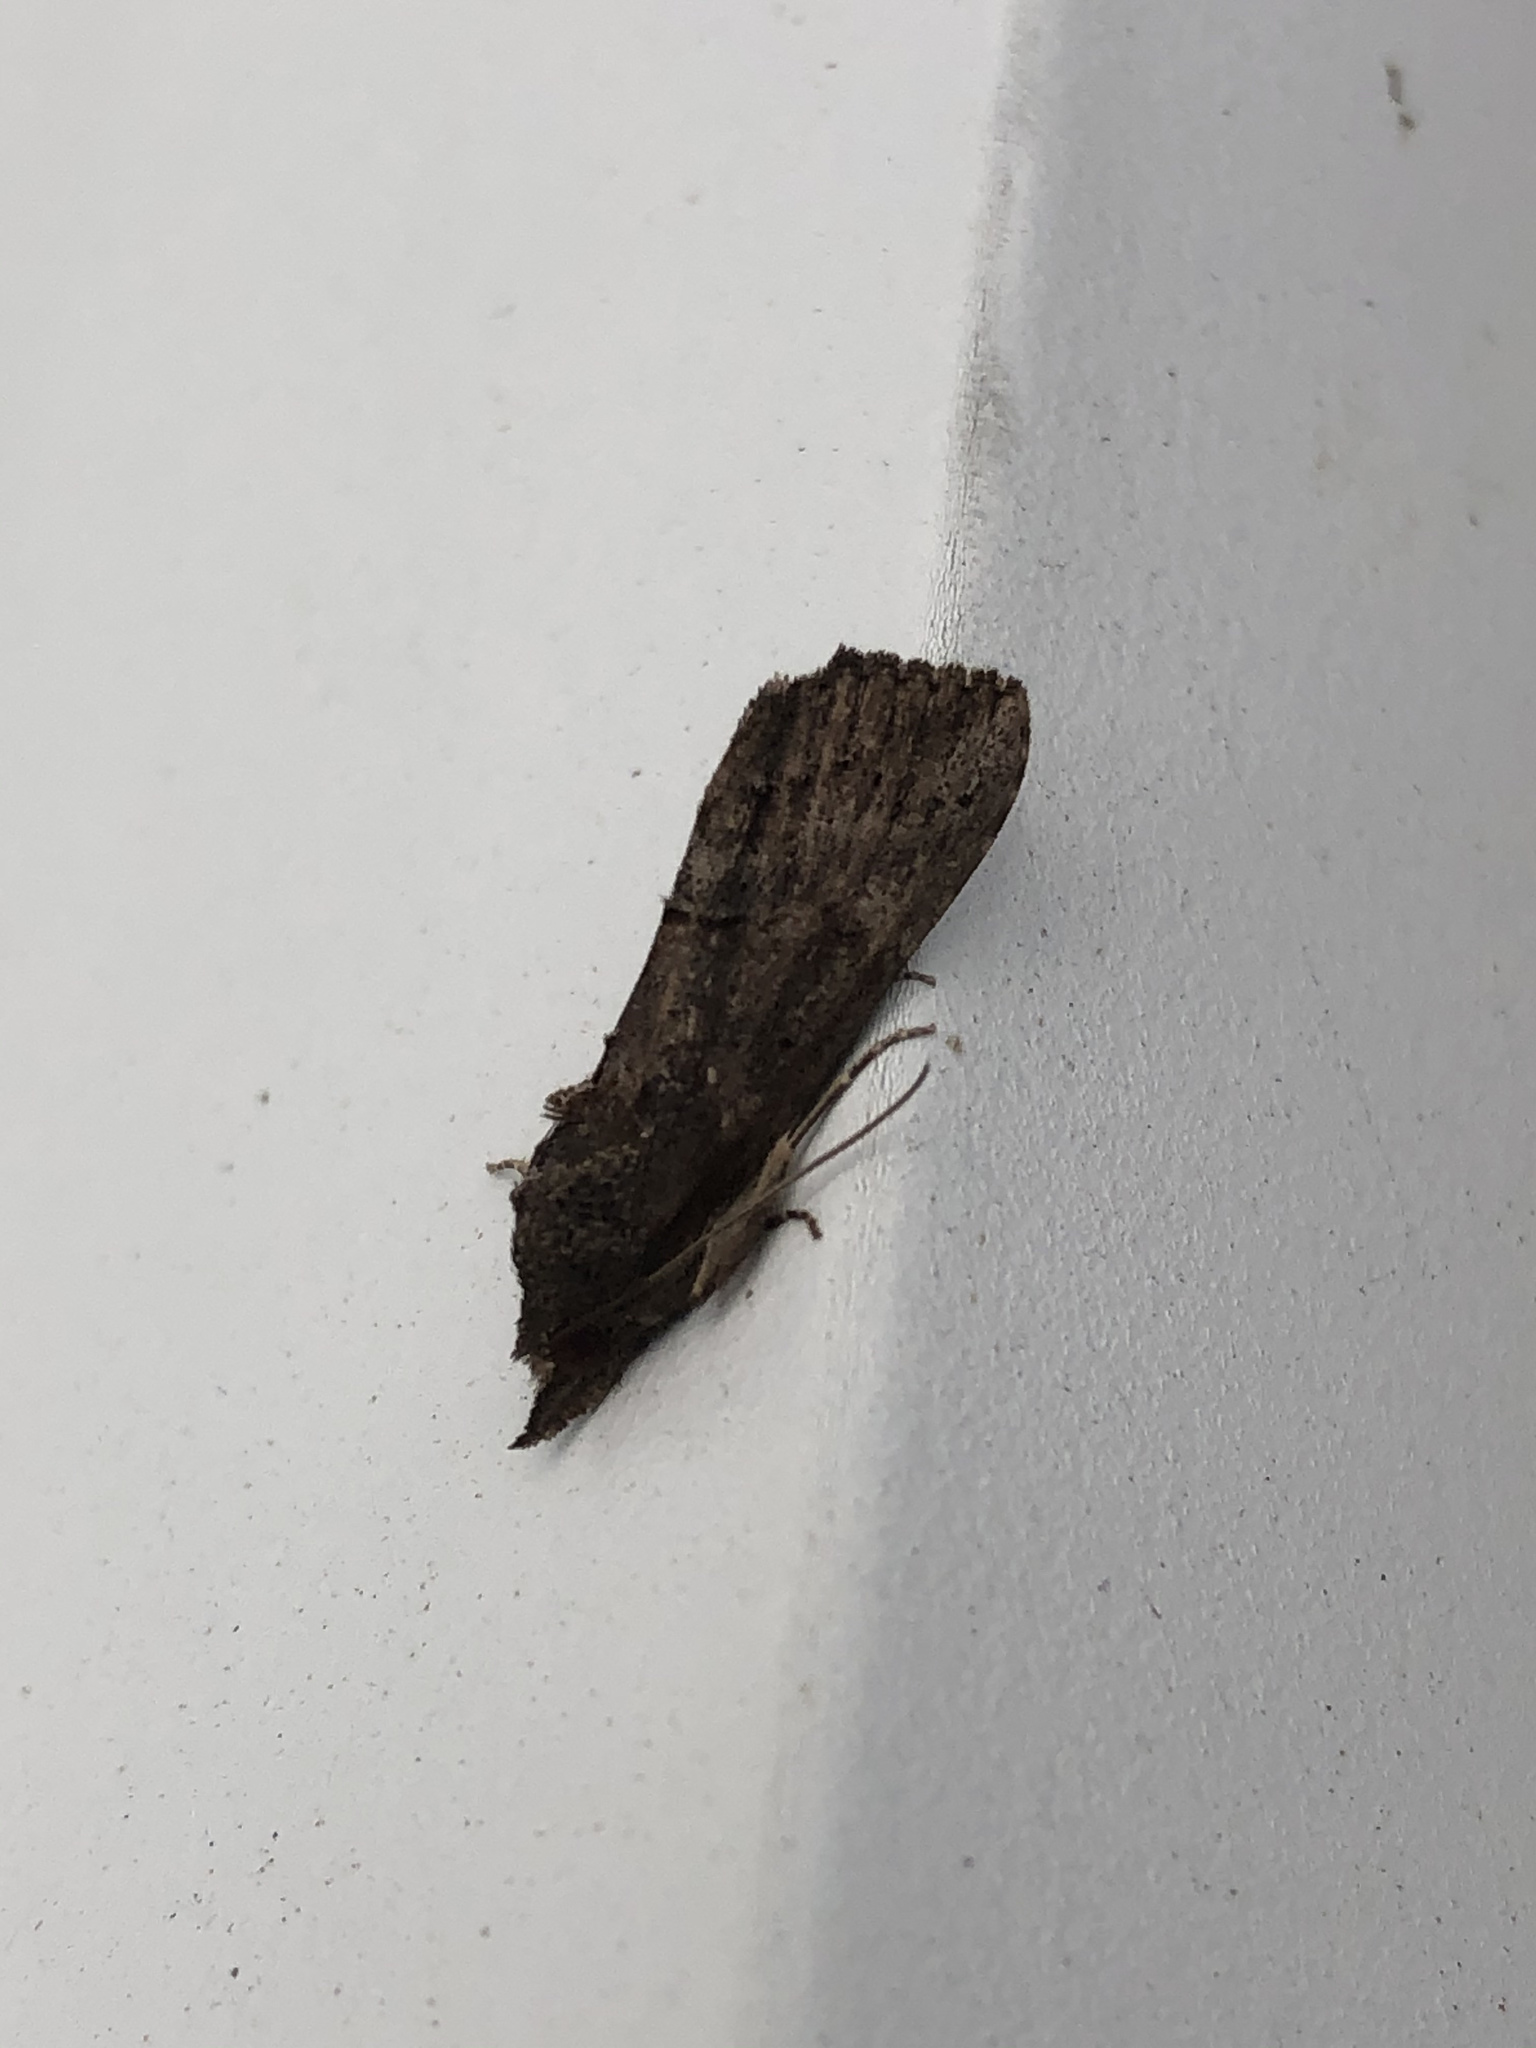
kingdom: Animalia
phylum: Arthropoda
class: Insecta
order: Lepidoptera
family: Erebidae
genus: Hypena
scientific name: Hypena scabra
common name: Green cloverworm
